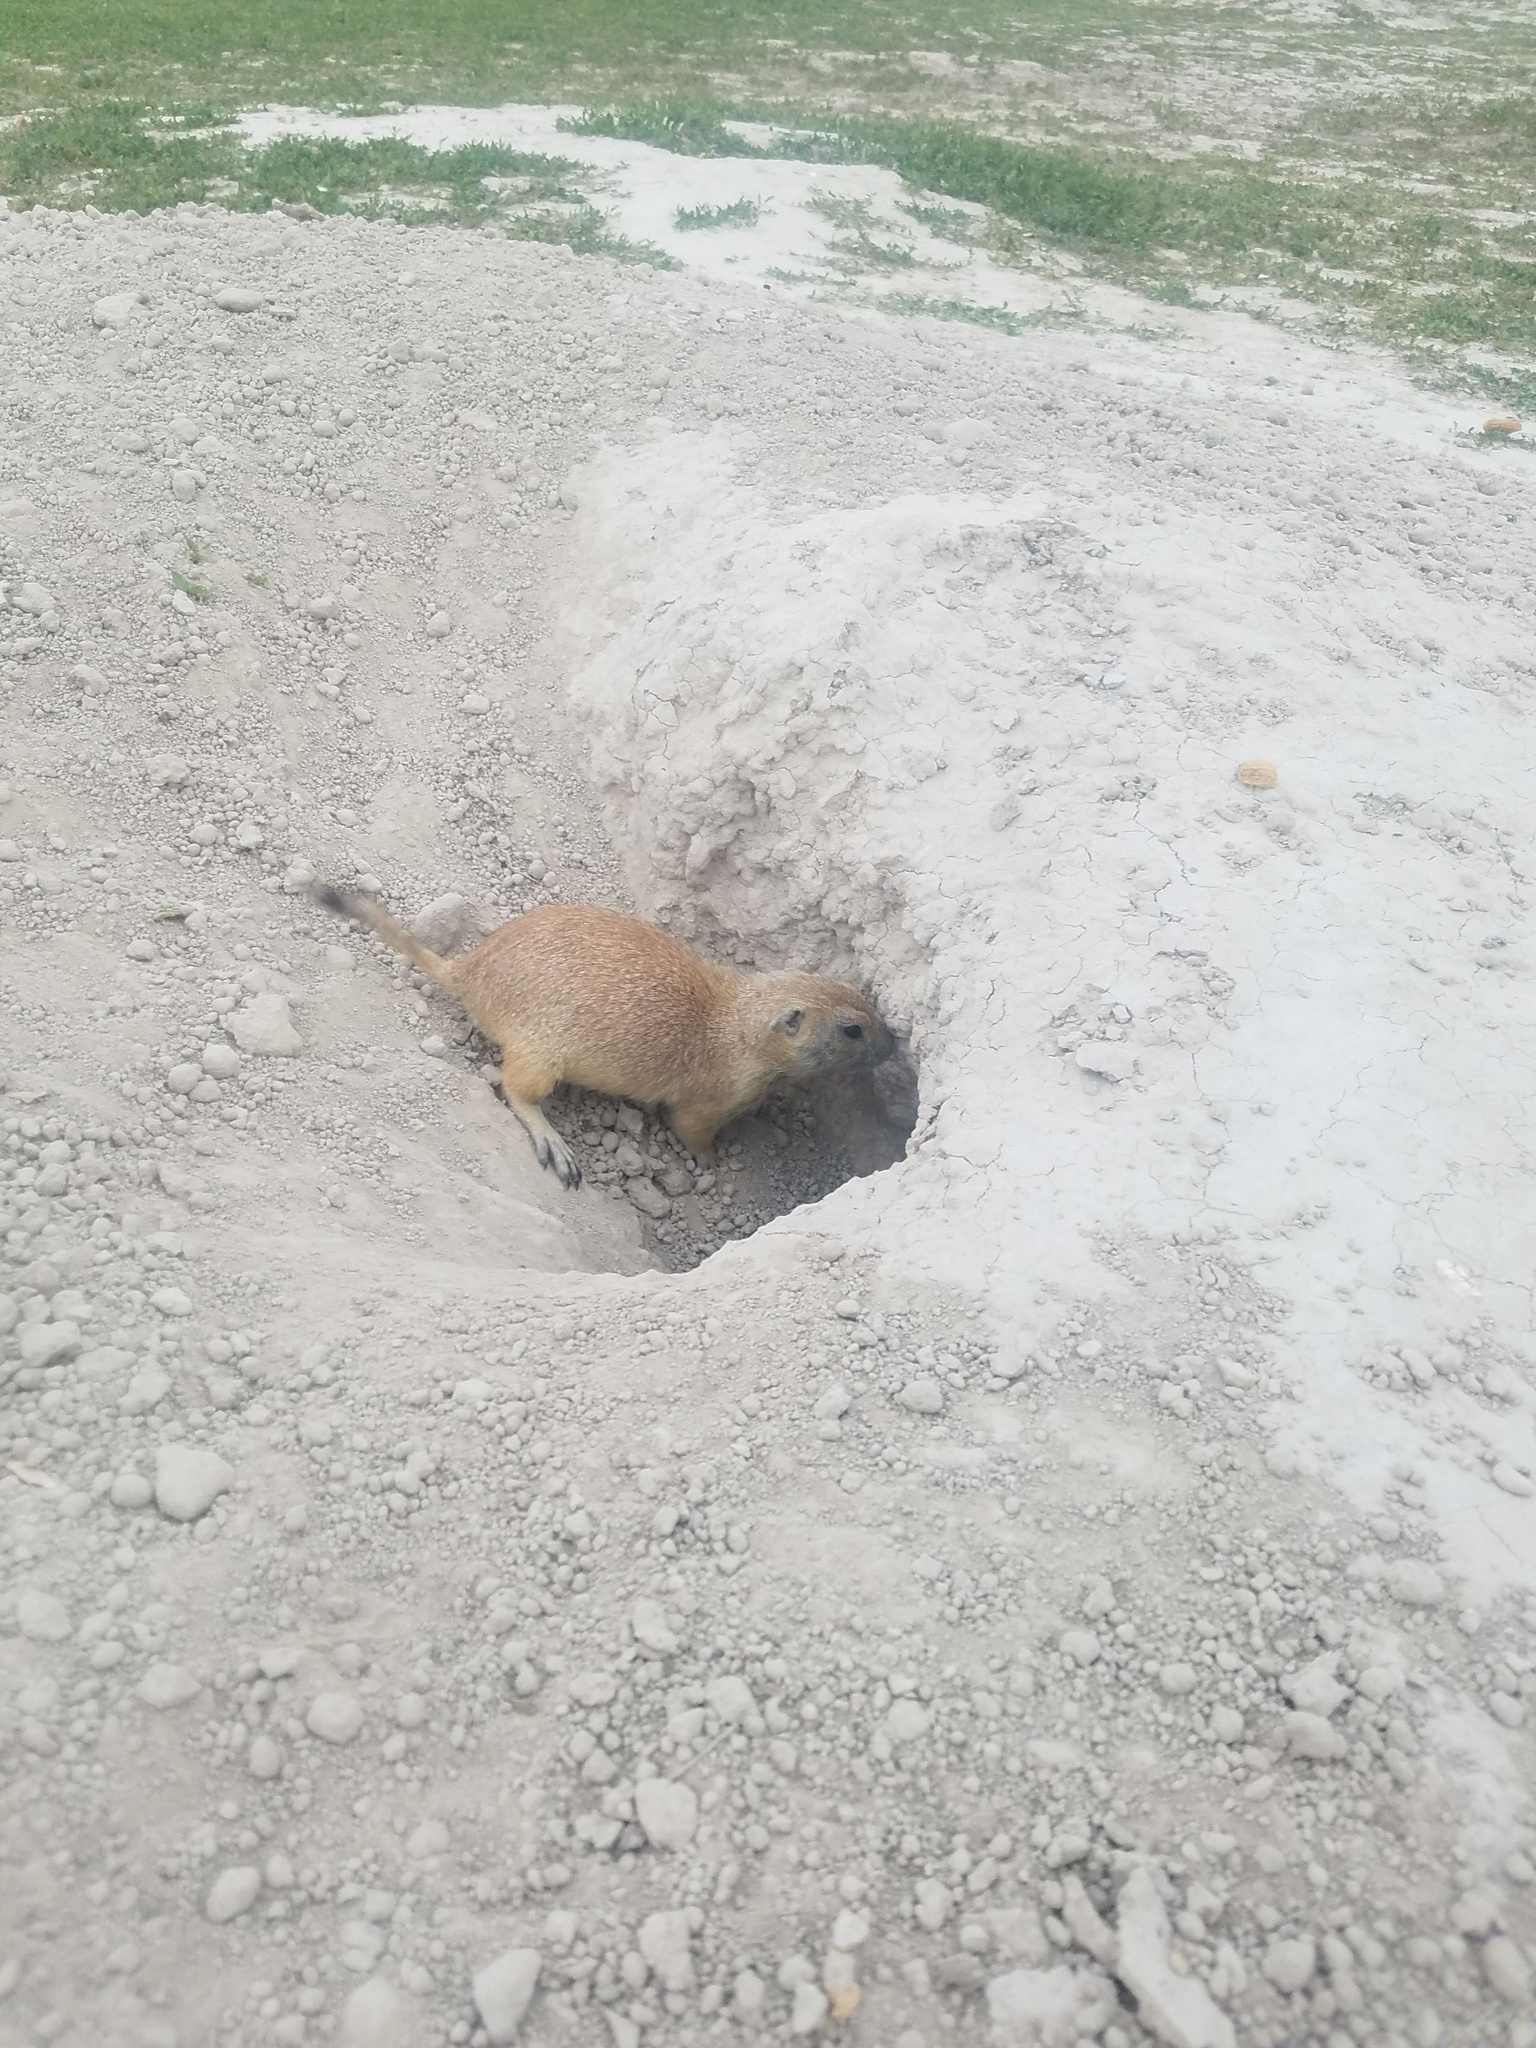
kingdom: Animalia
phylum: Chordata
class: Mammalia
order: Rodentia
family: Sciuridae
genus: Cynomys
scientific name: Cynomys ludovicianus
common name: Black-tailed prairie dog
